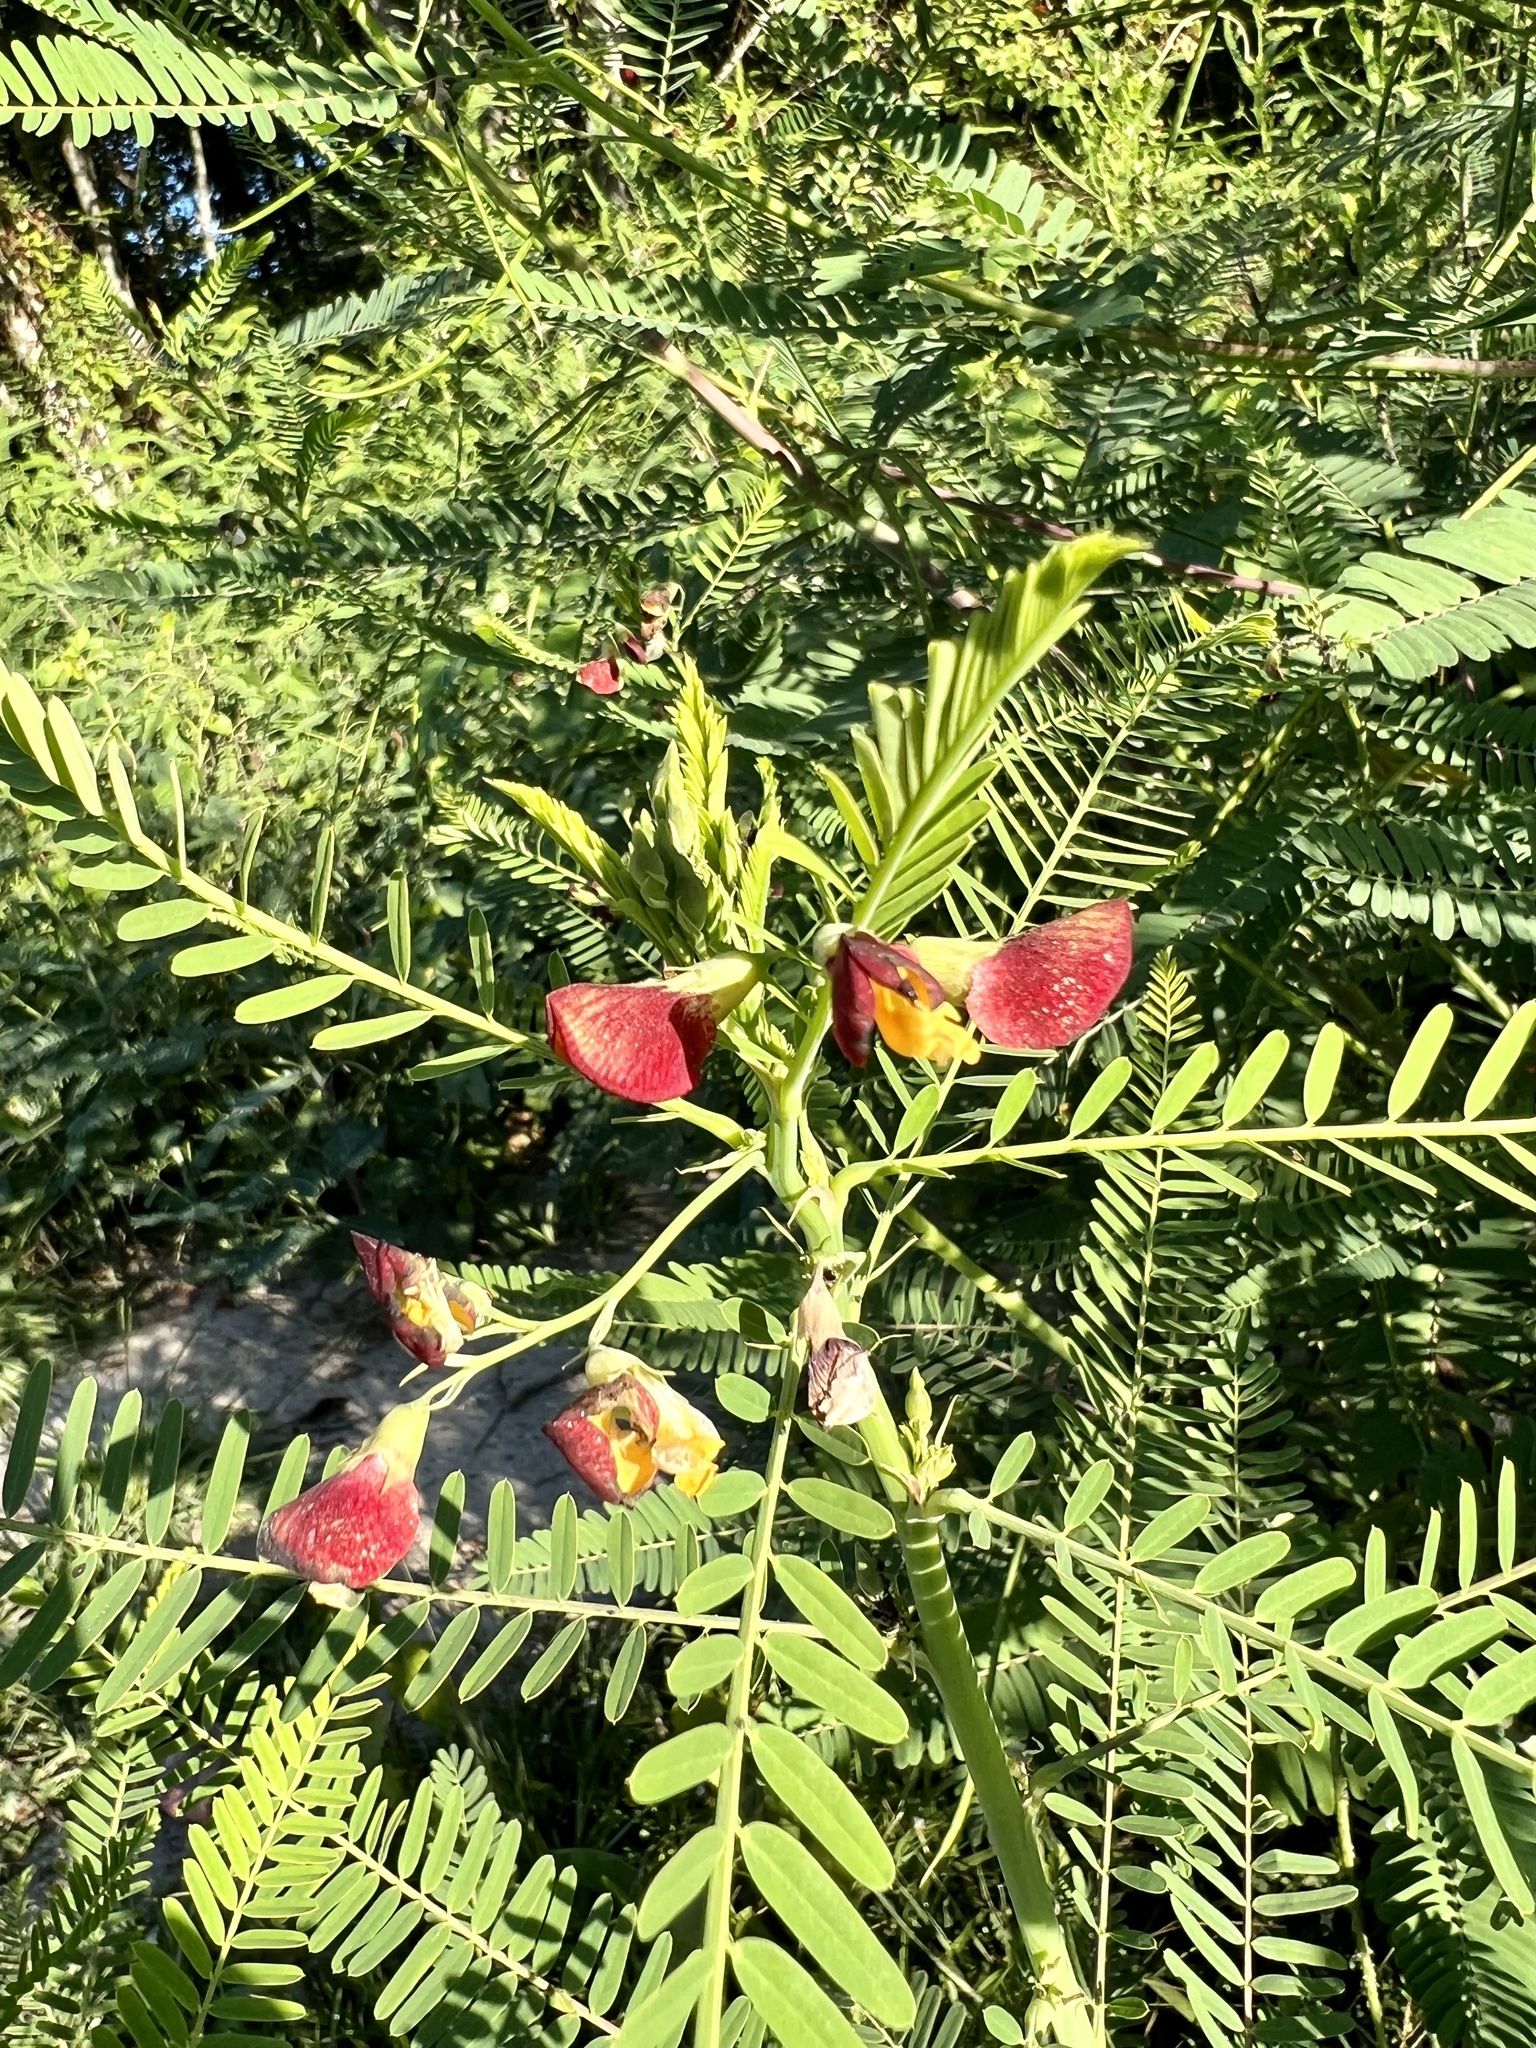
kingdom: Plantae
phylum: Tracheophyta
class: Magnoliopsida
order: Fabales
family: Fabaceae
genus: Sesbania
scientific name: Sesbania herbacea
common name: Bigpod sesbania
